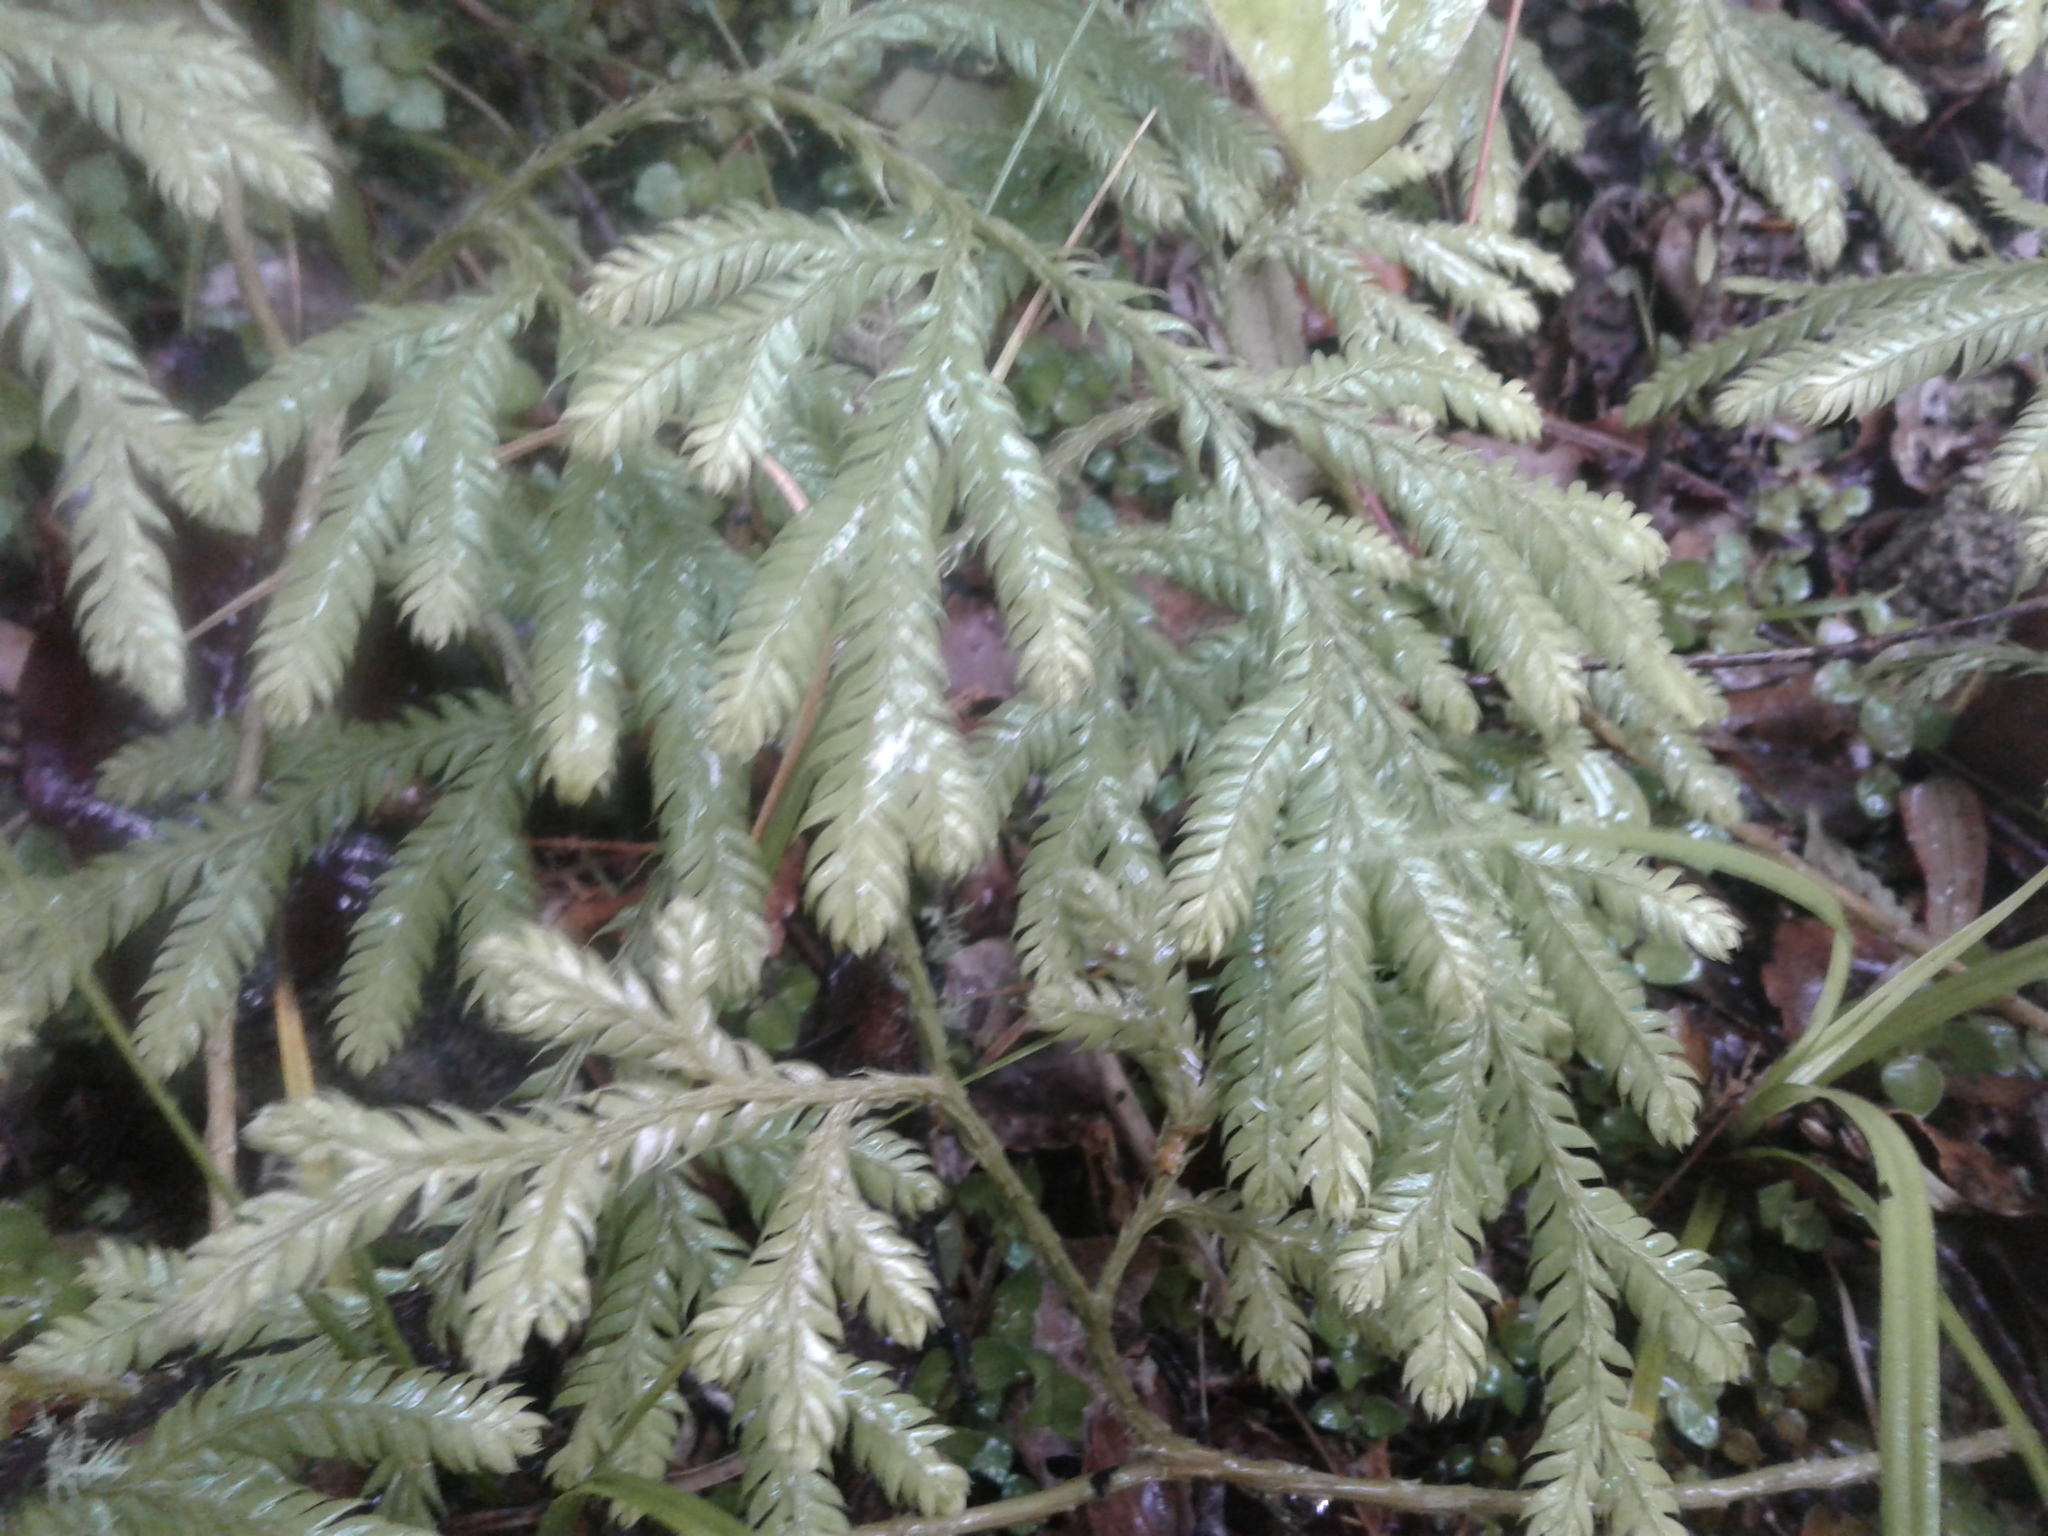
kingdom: Plantae
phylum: Tracheophyta
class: Lycopodiopsida
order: Lycopodiales
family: Lycopodiaceae
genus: Lycopodium
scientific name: Lycopodium volubile
